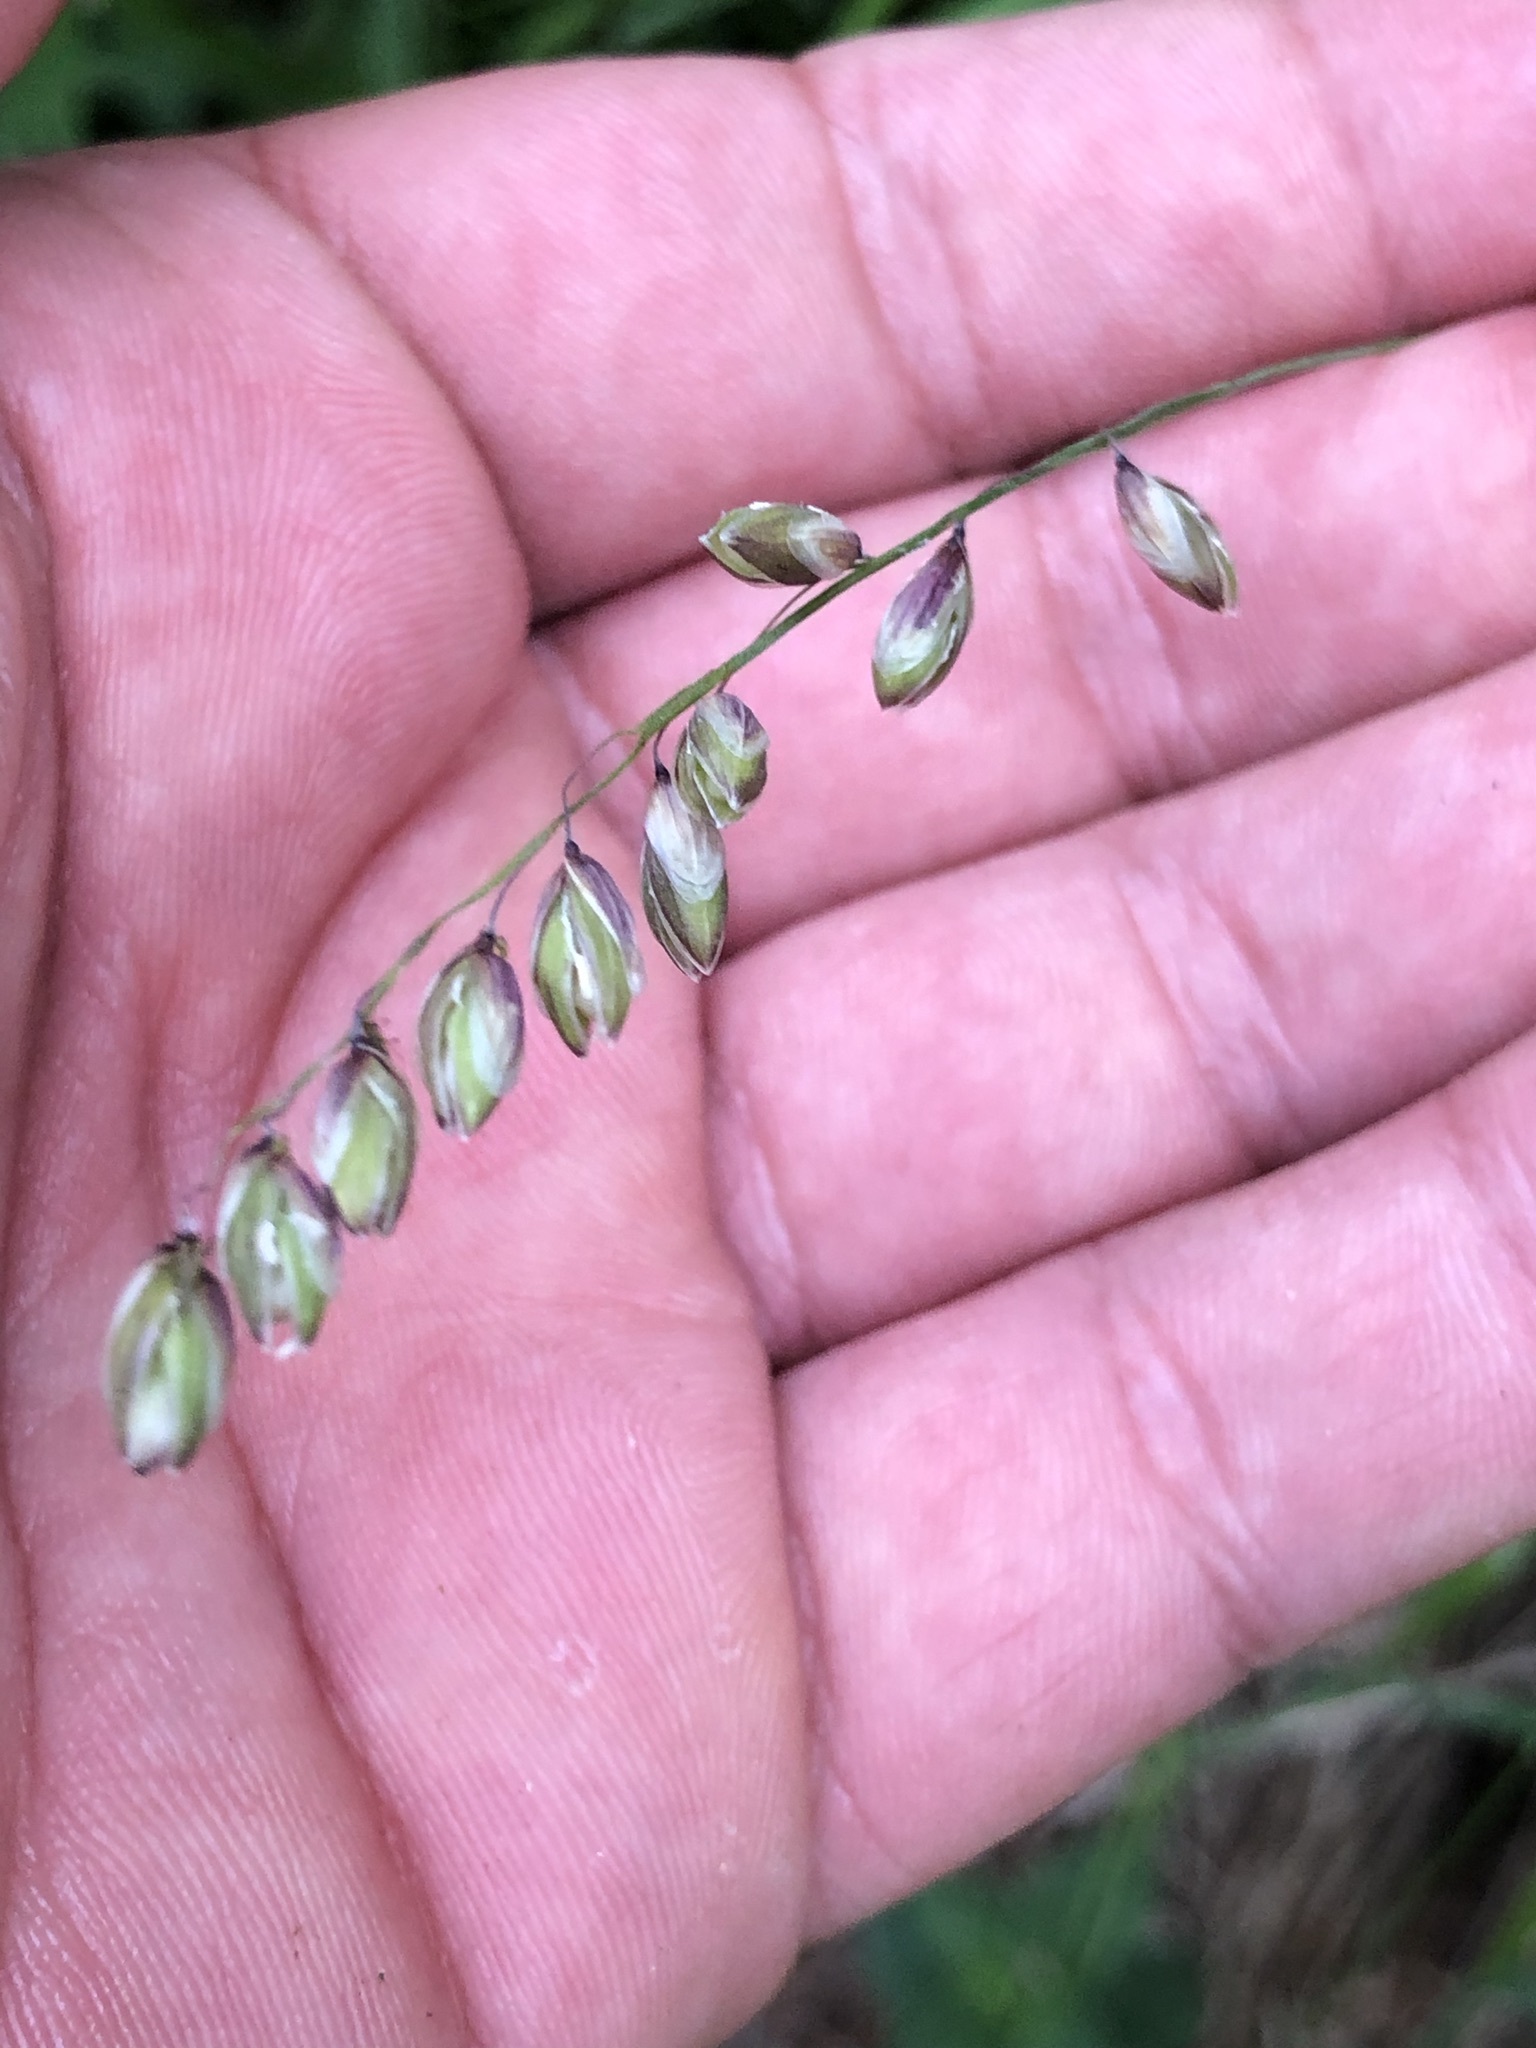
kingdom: Plantae
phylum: Tracheophyta
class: Liliopsida
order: Poales
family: Poaceae
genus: Melica
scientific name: Melica nutans
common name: Mountain melick
